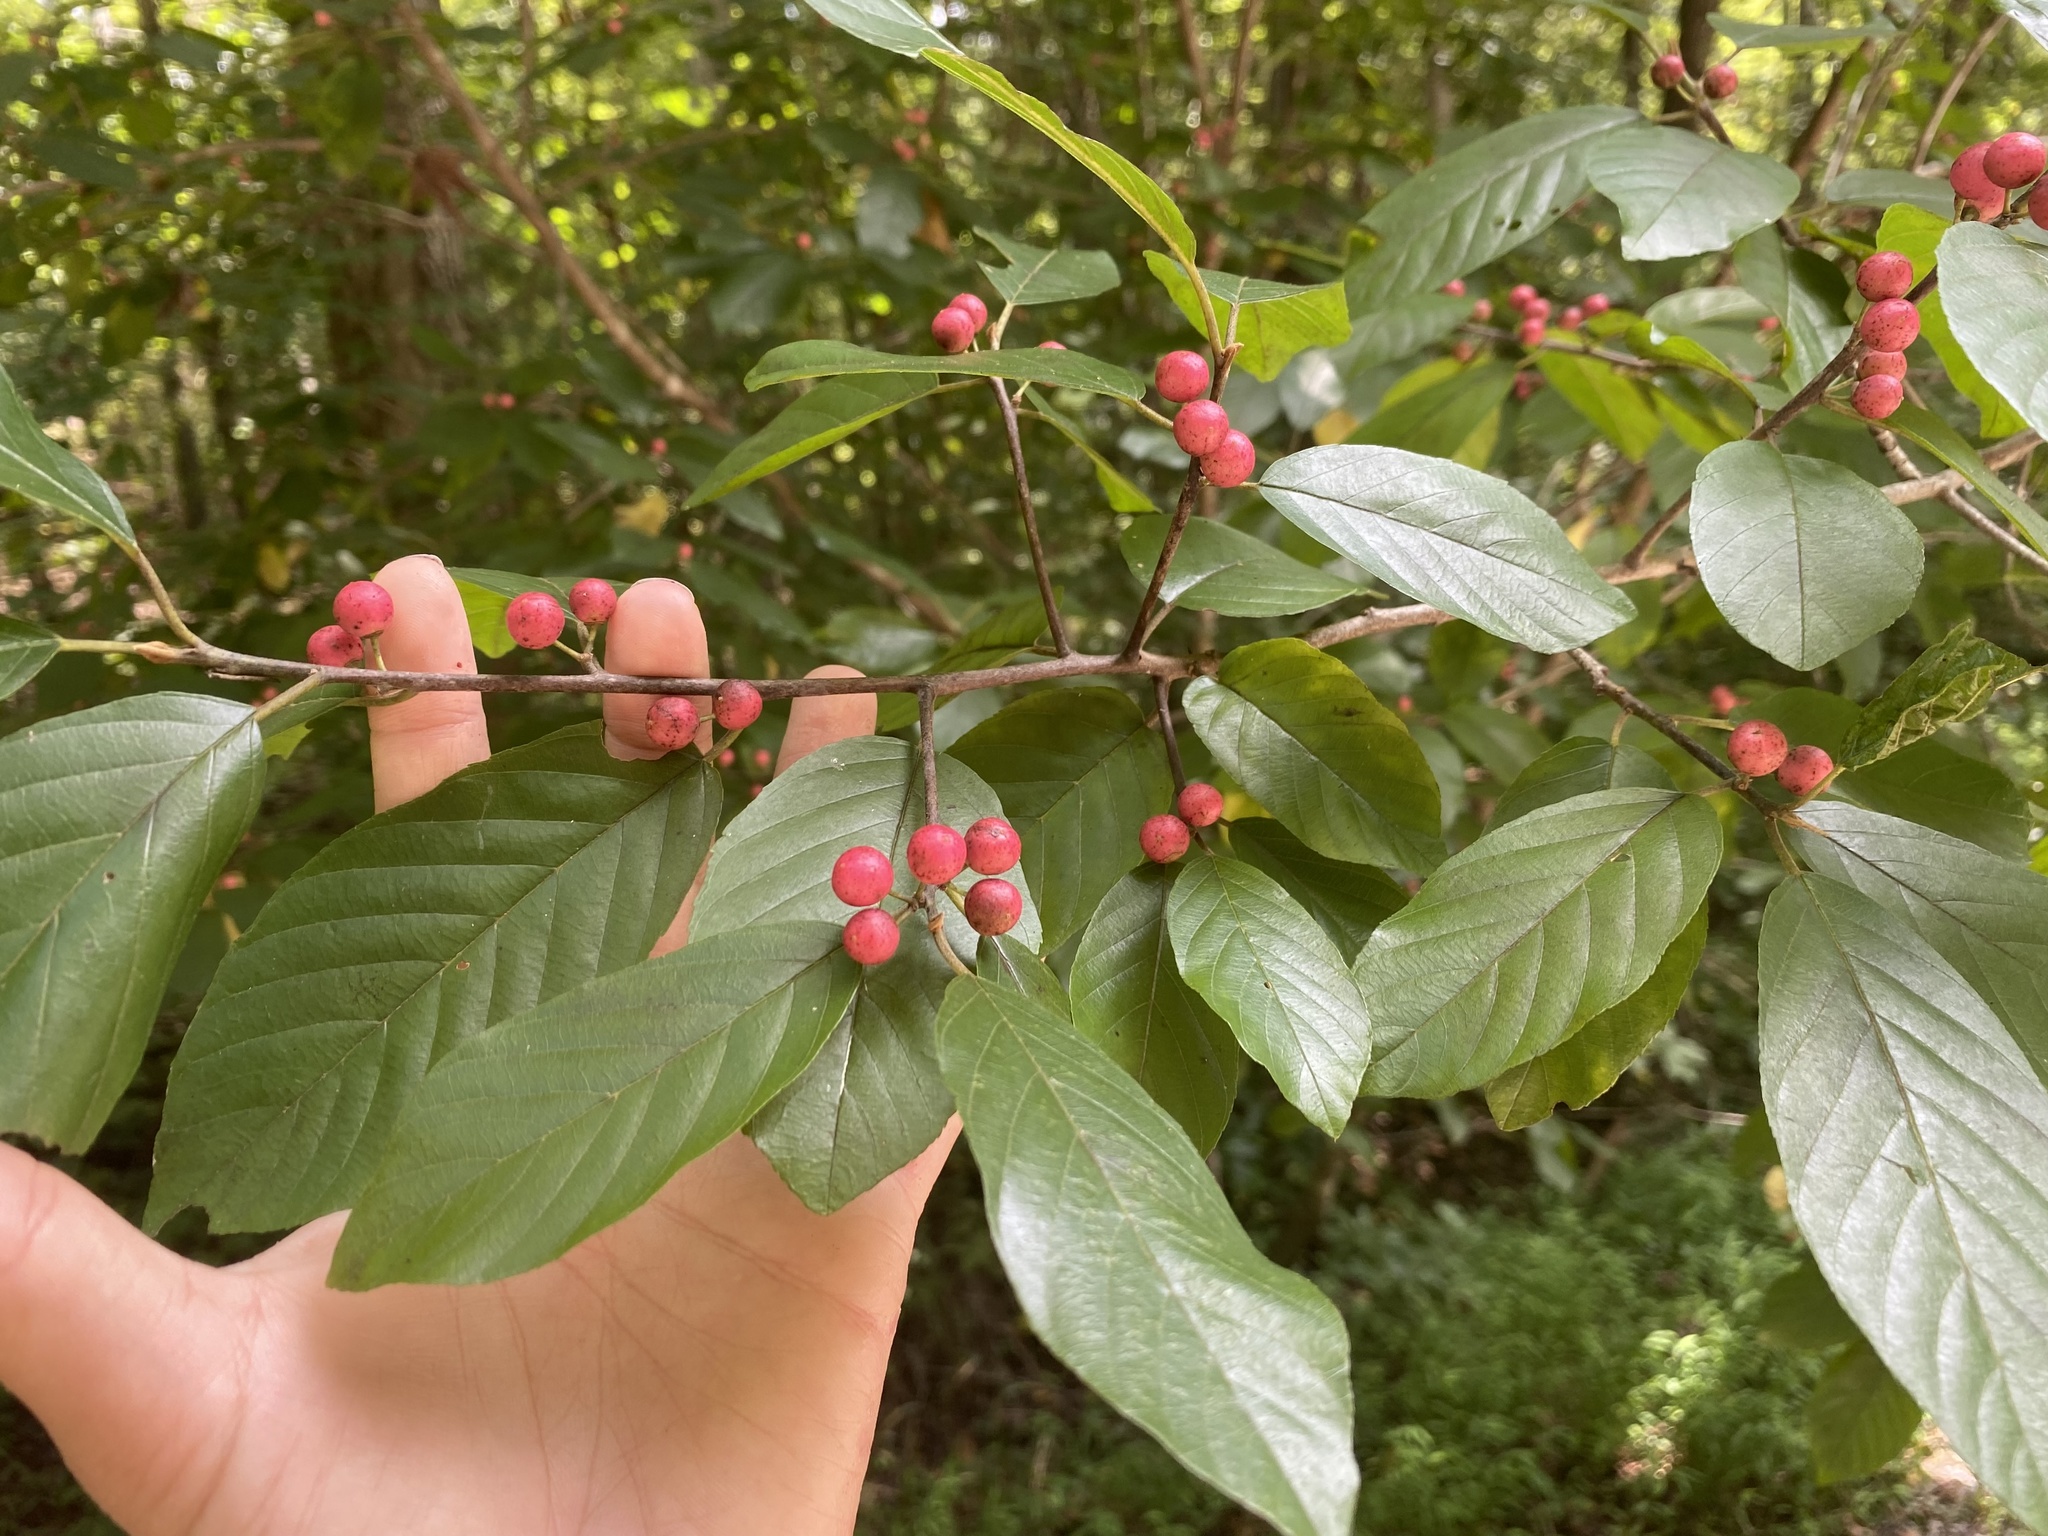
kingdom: Plantae
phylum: Tracheophyta
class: Magnoliopsida
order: Rosales
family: Rhamnaceae
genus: Frangula
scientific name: Frangula caroliniana
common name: Carolina buckthorn
